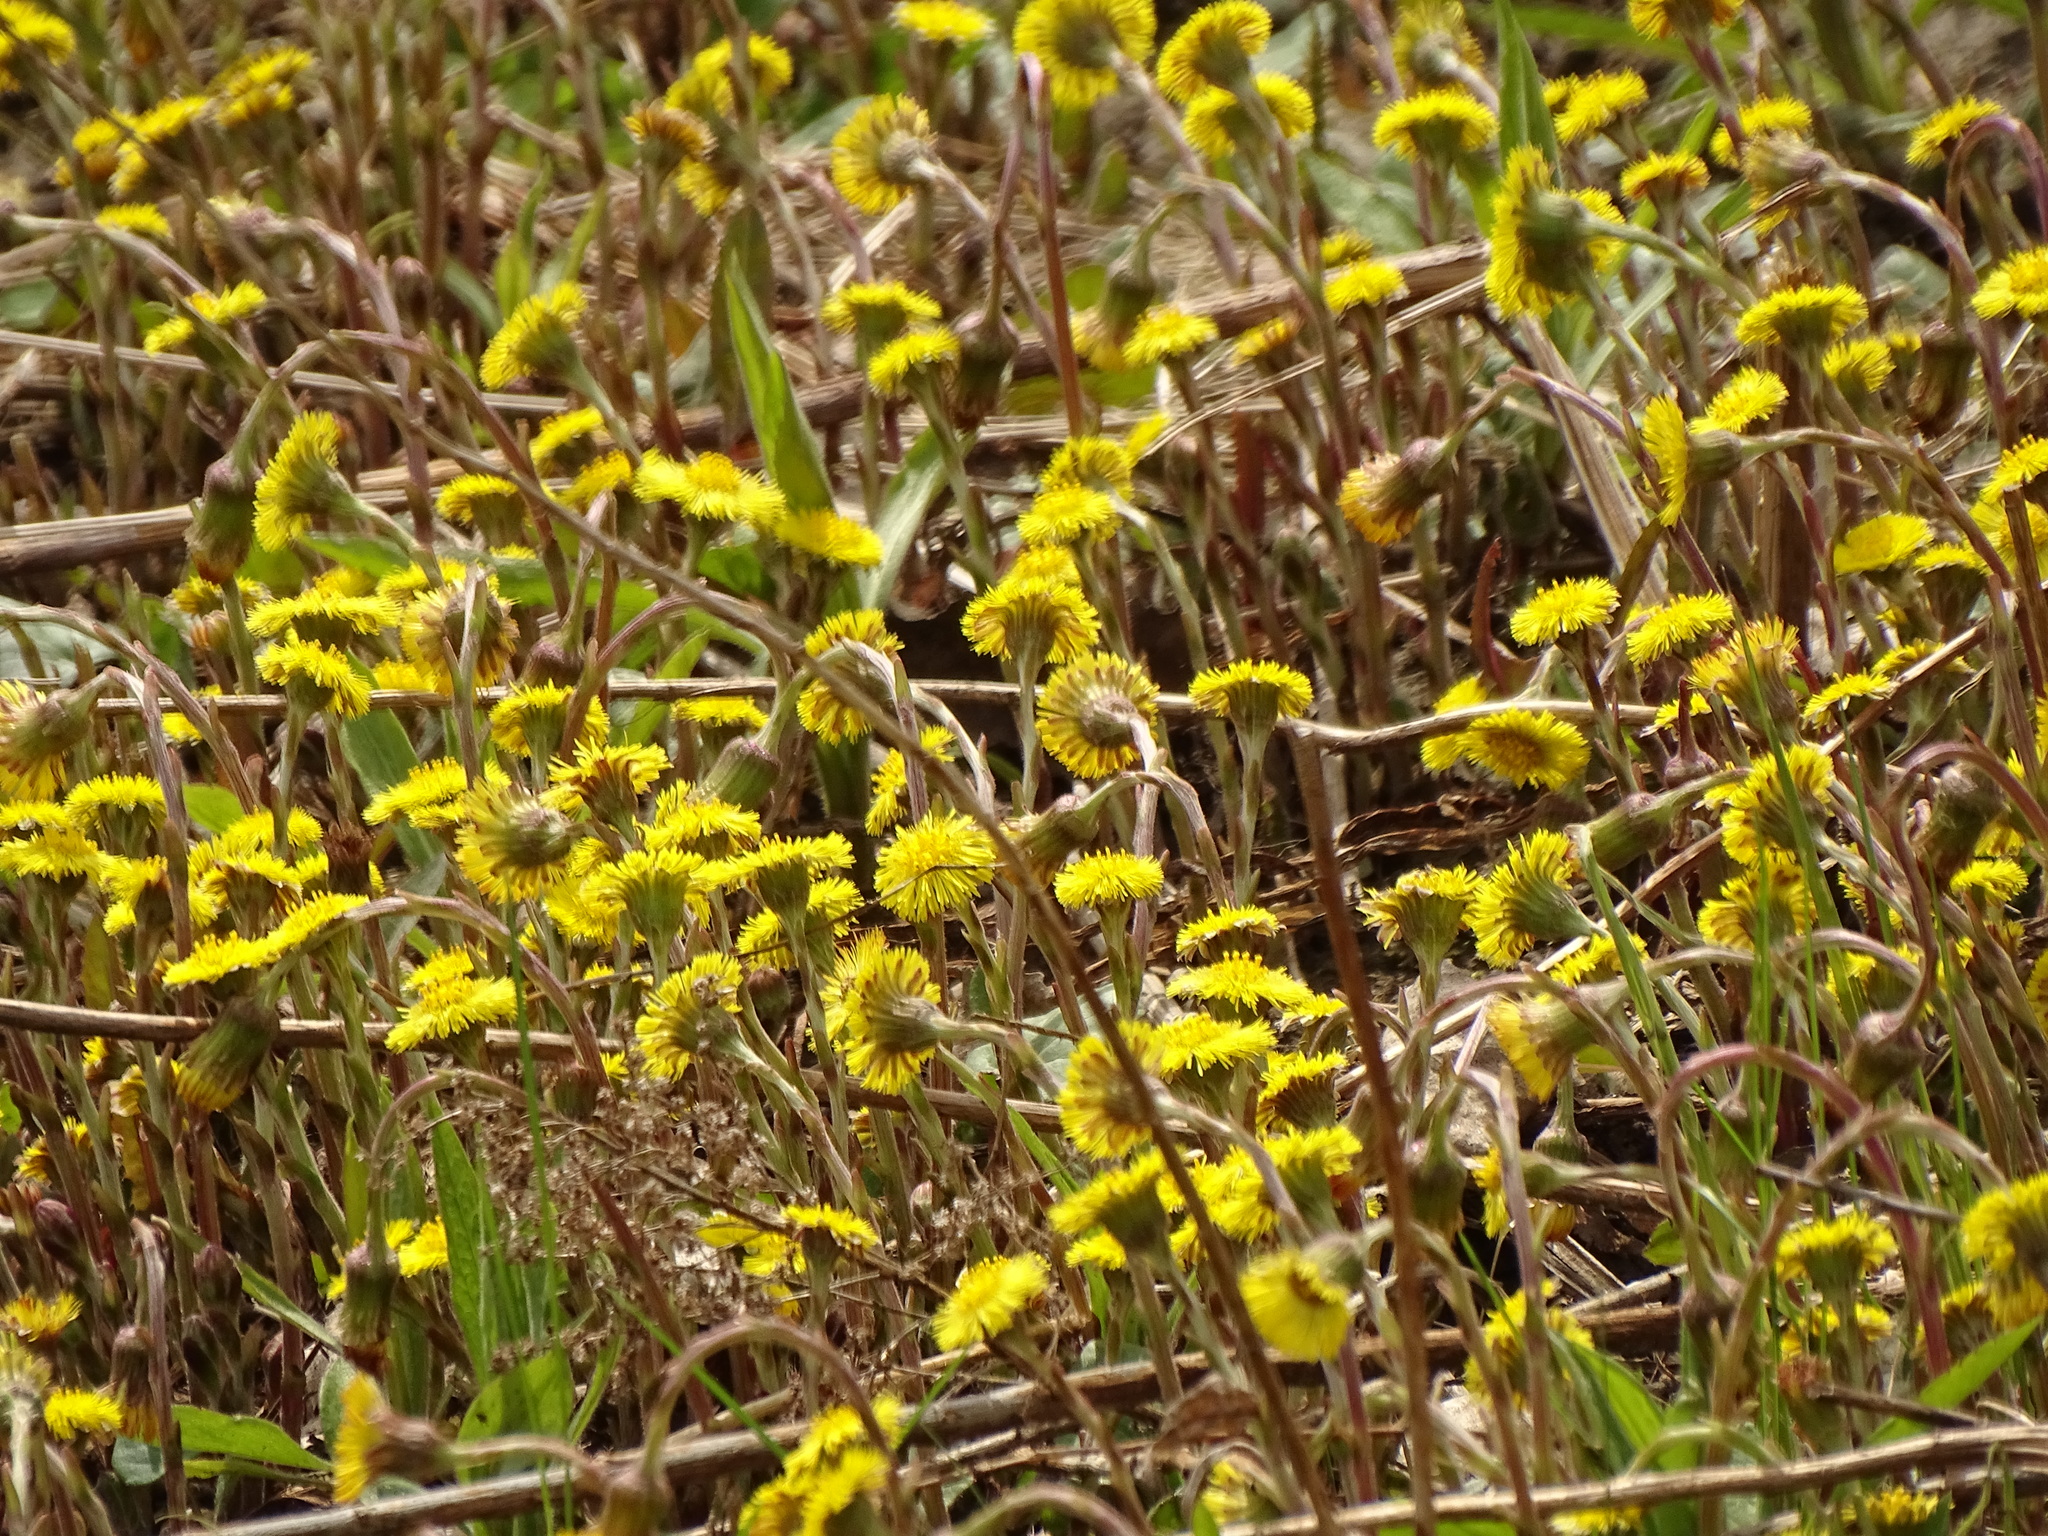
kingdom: Plantae
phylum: Tracheophyta
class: Magnoliopsida
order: Asterales
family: Asteraceae
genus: Tussilago
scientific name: Tussilago farfara
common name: Coltsfoot
